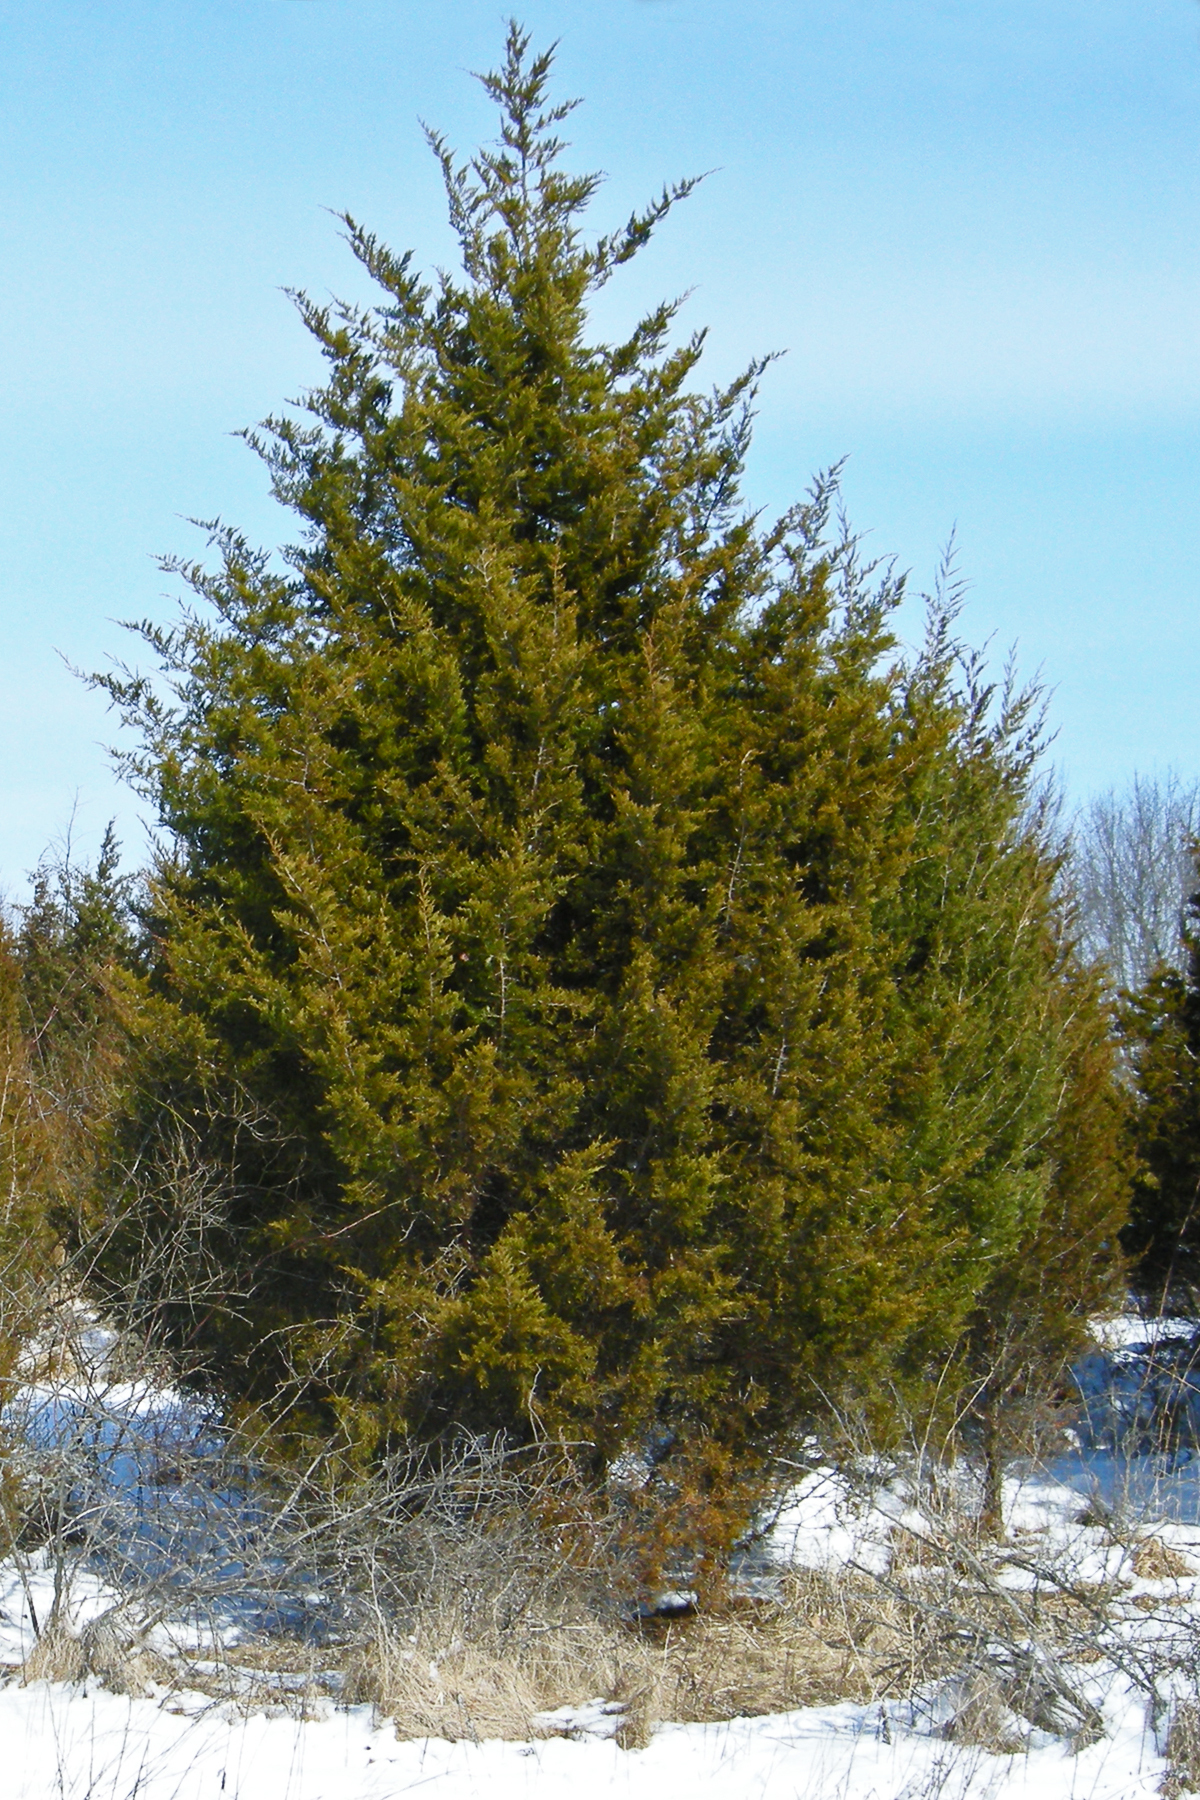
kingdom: Plantae
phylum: Tracheophyta
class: Pinopsida
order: Pinales
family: Cupressaceae
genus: Juniperus
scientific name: Juniperus virginiana
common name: Red juniper
